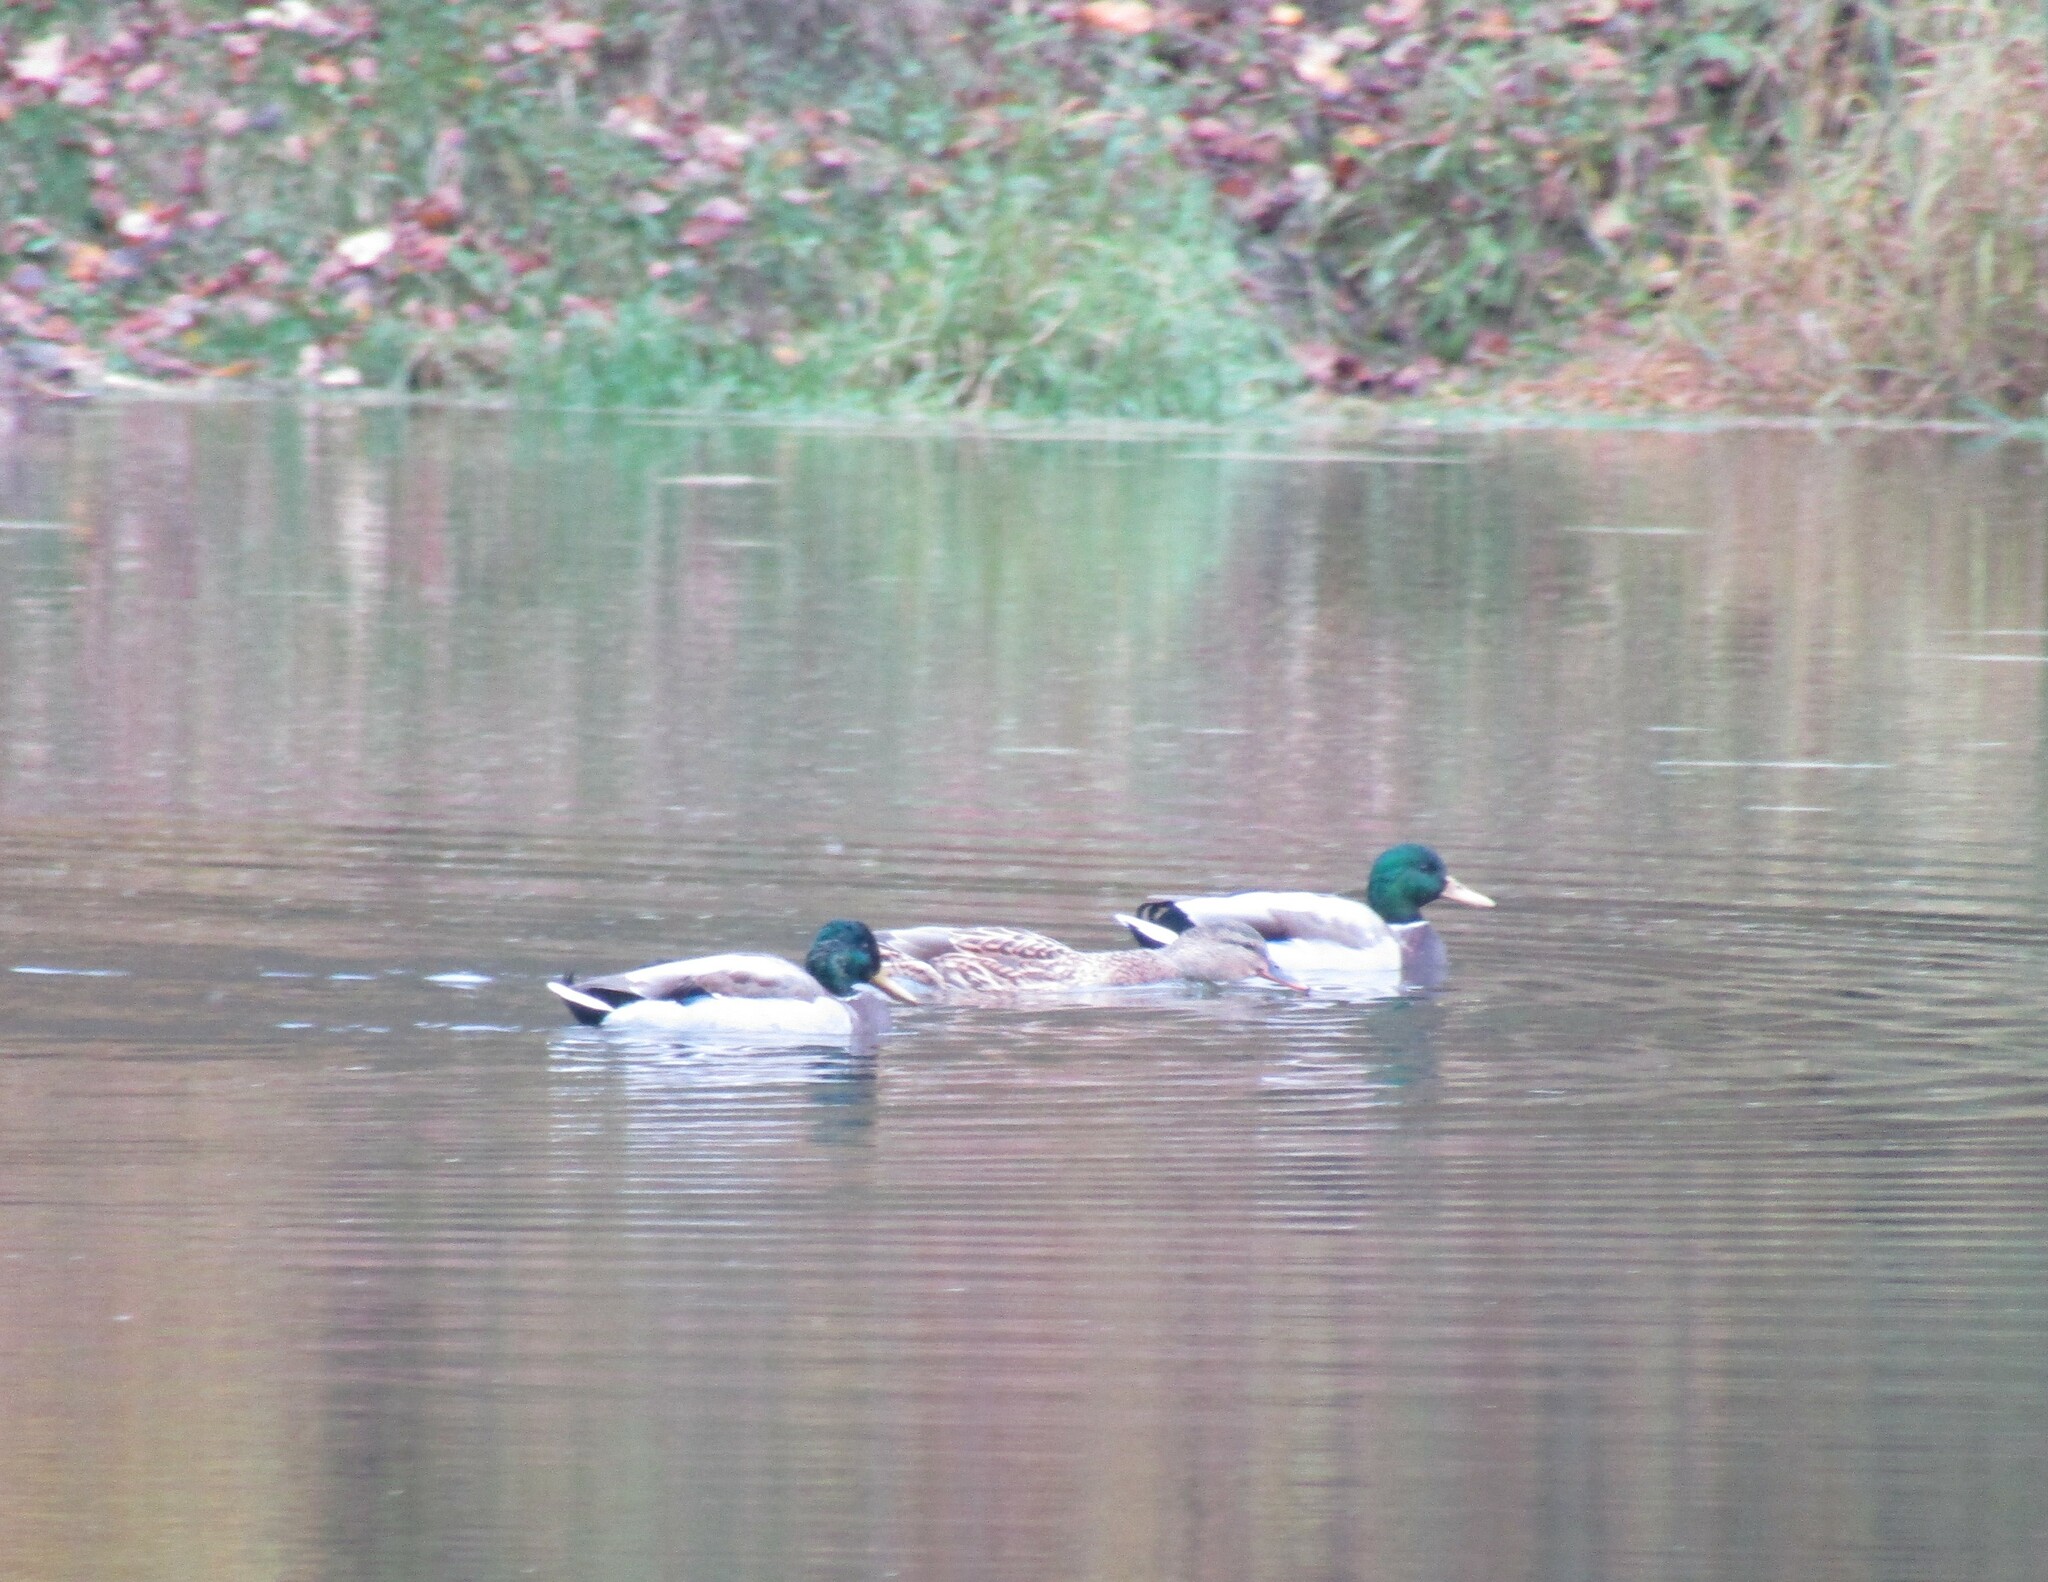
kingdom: Animalia
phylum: Chordata
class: Aves
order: Anseriformes
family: Anatidae
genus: Anas
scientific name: Anas platyrhynchos
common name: Mallard
